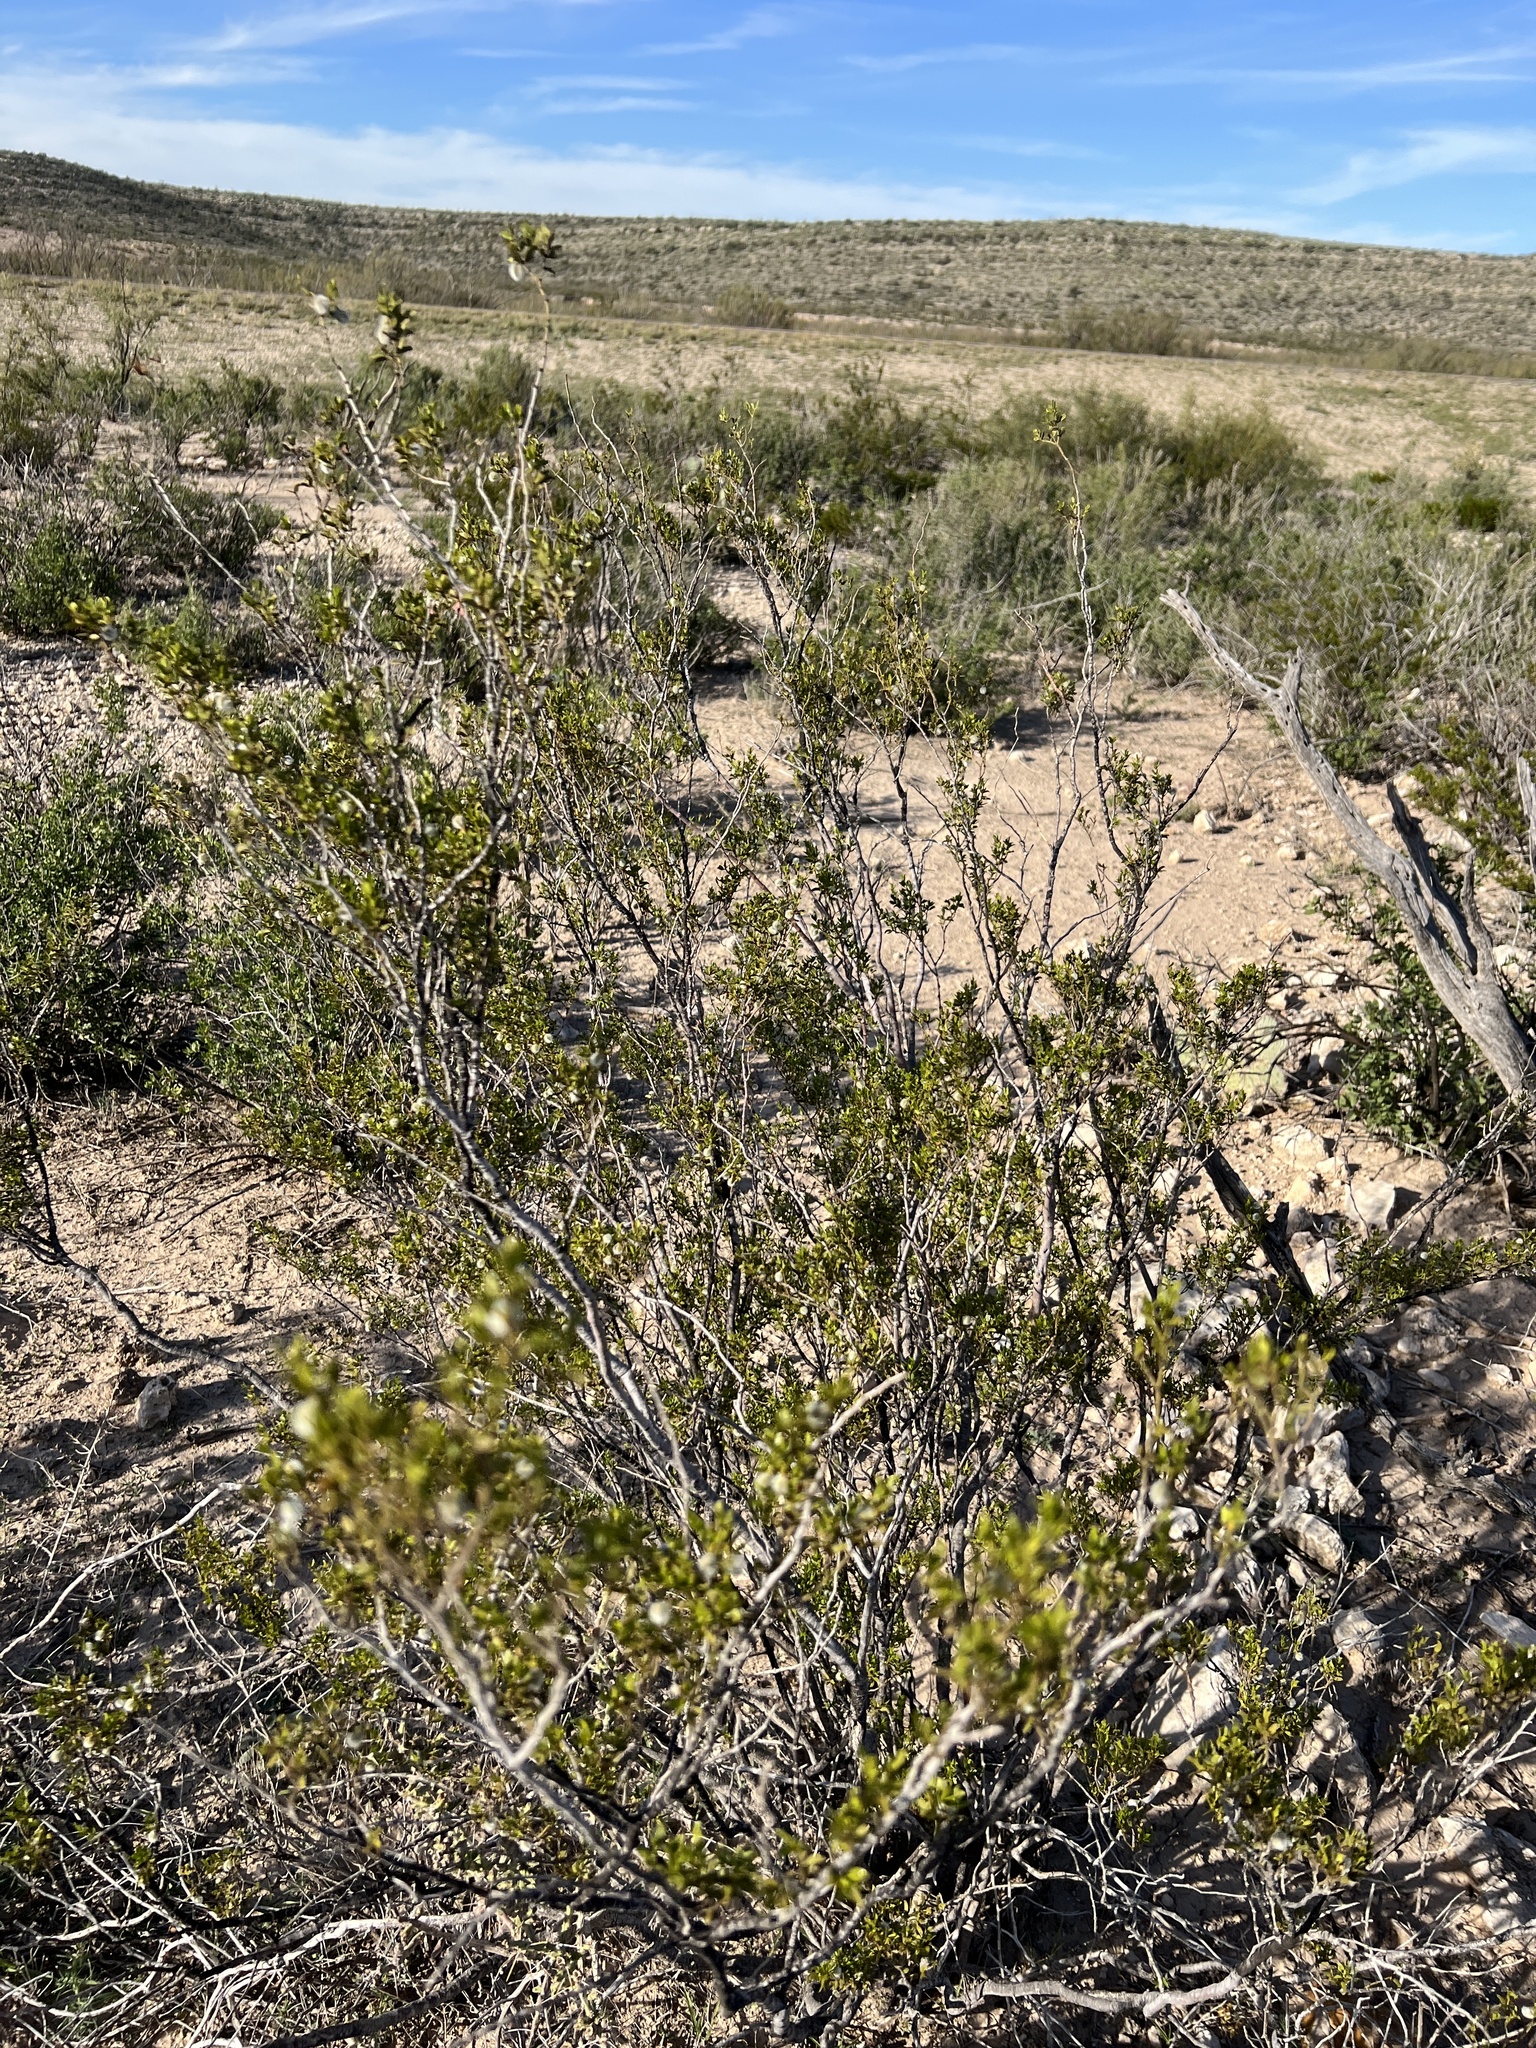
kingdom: Plantae
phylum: Tracheophyta
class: Magnoliopsida
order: Zygophyllales
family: Zygophyllaceae
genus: Larrea
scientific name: Larrea tridentata
